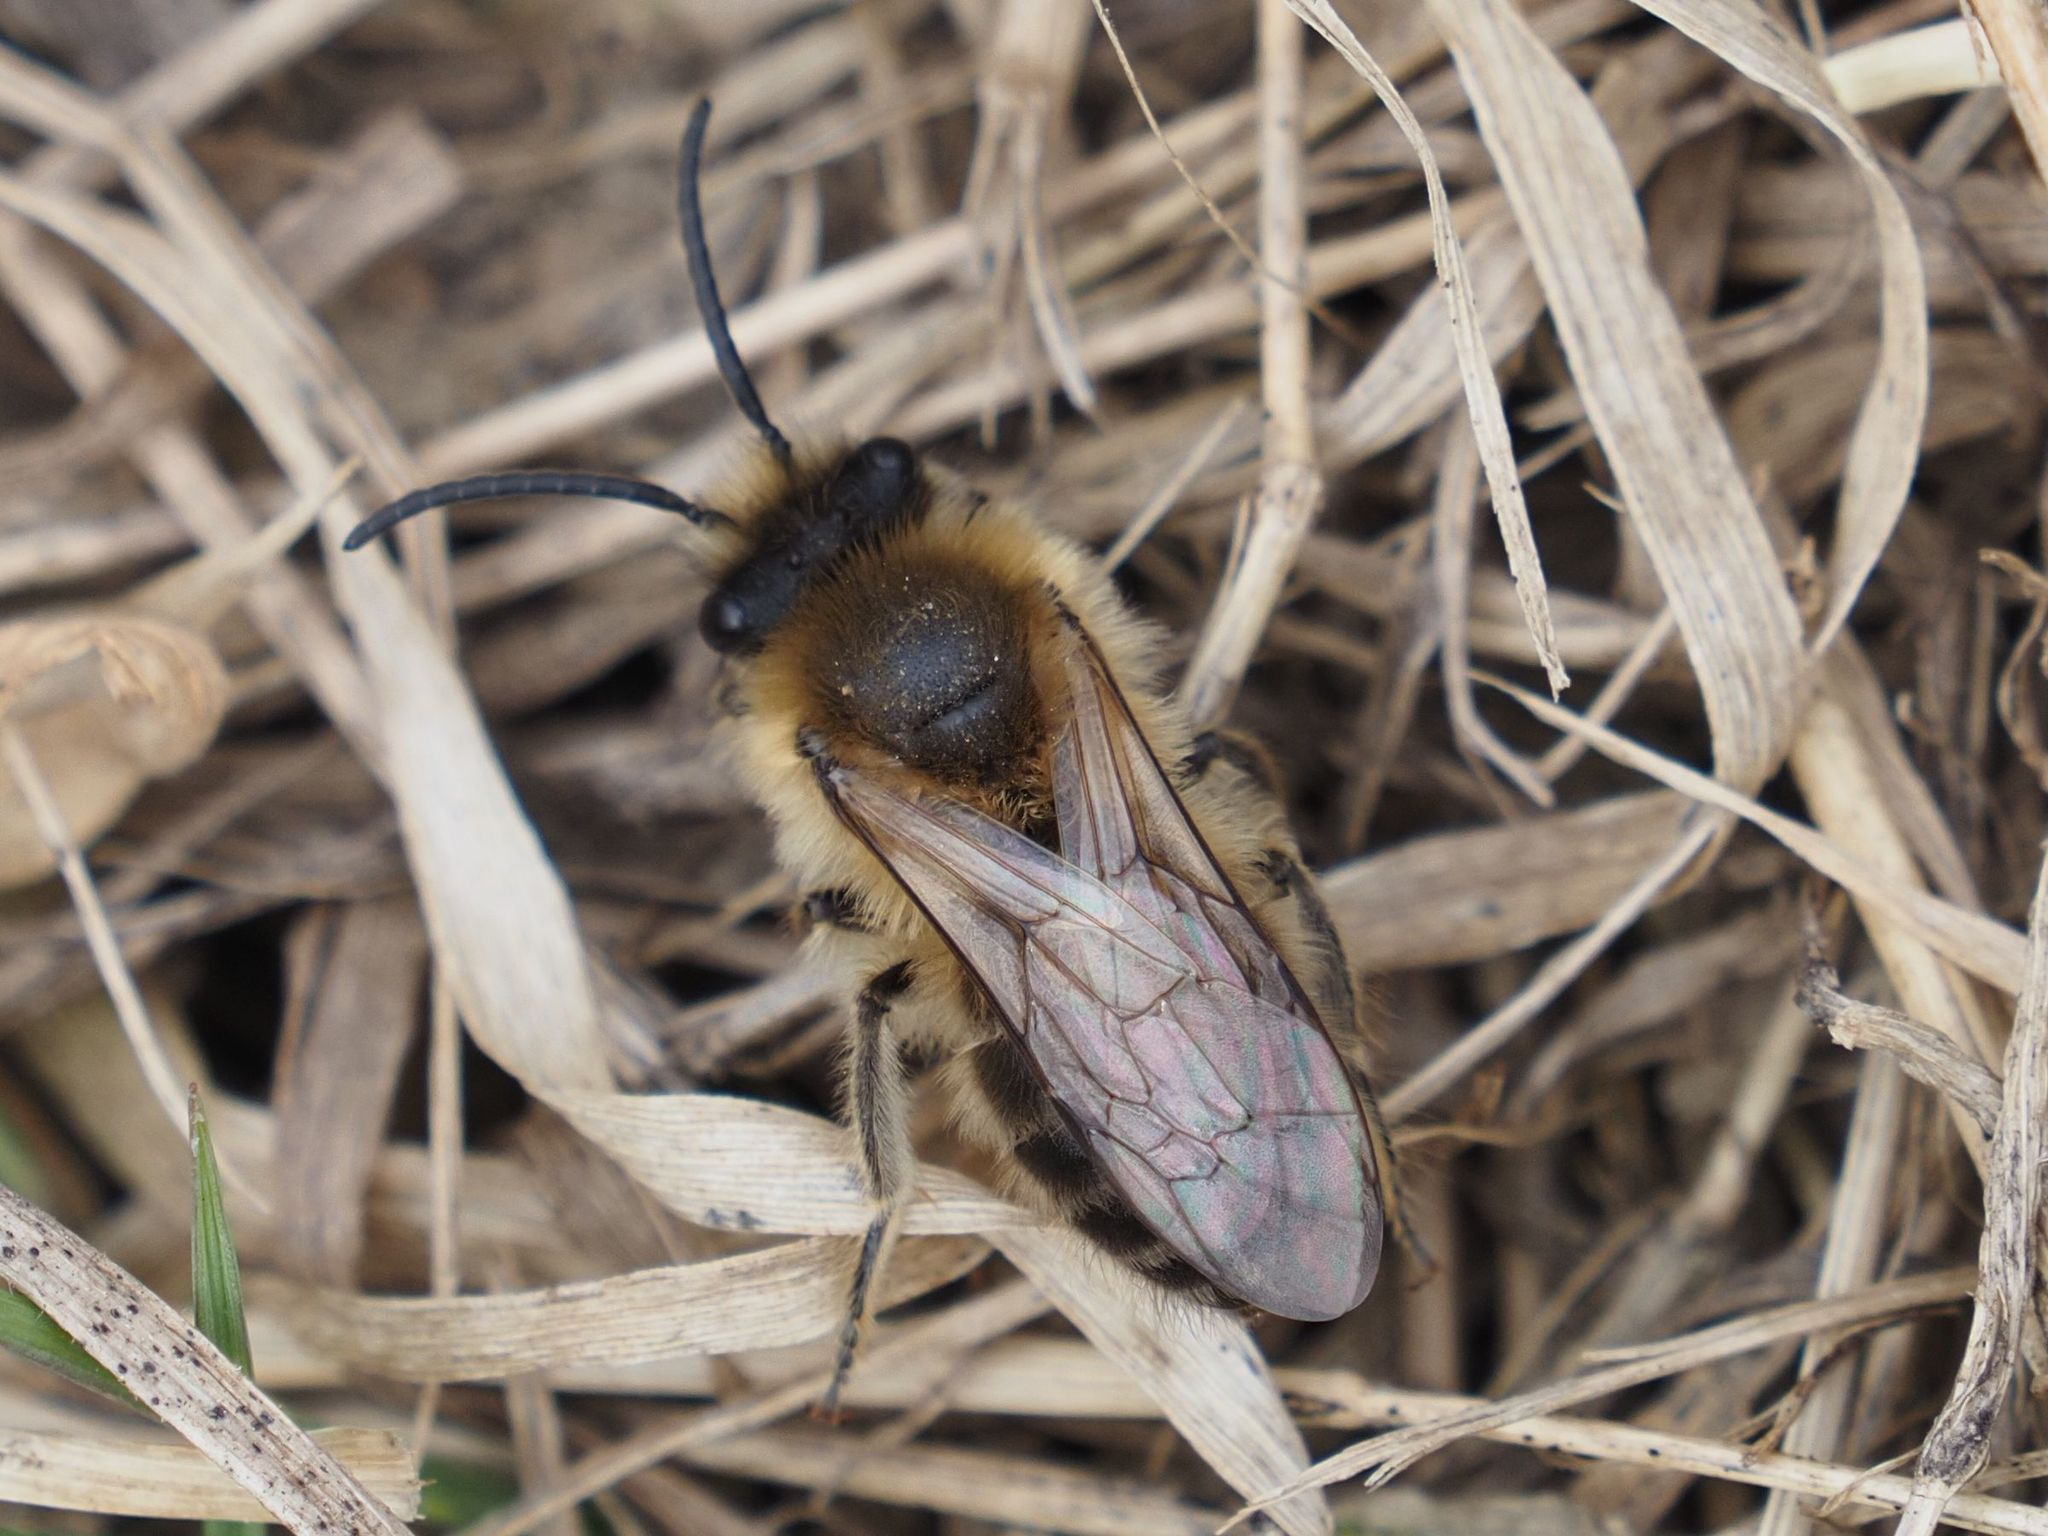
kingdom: Animalia
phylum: Arthropoda
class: Insecta
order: Hymenoptera
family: Colletidae
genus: Colletes
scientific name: Colletes cunicularius
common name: Early colletes
